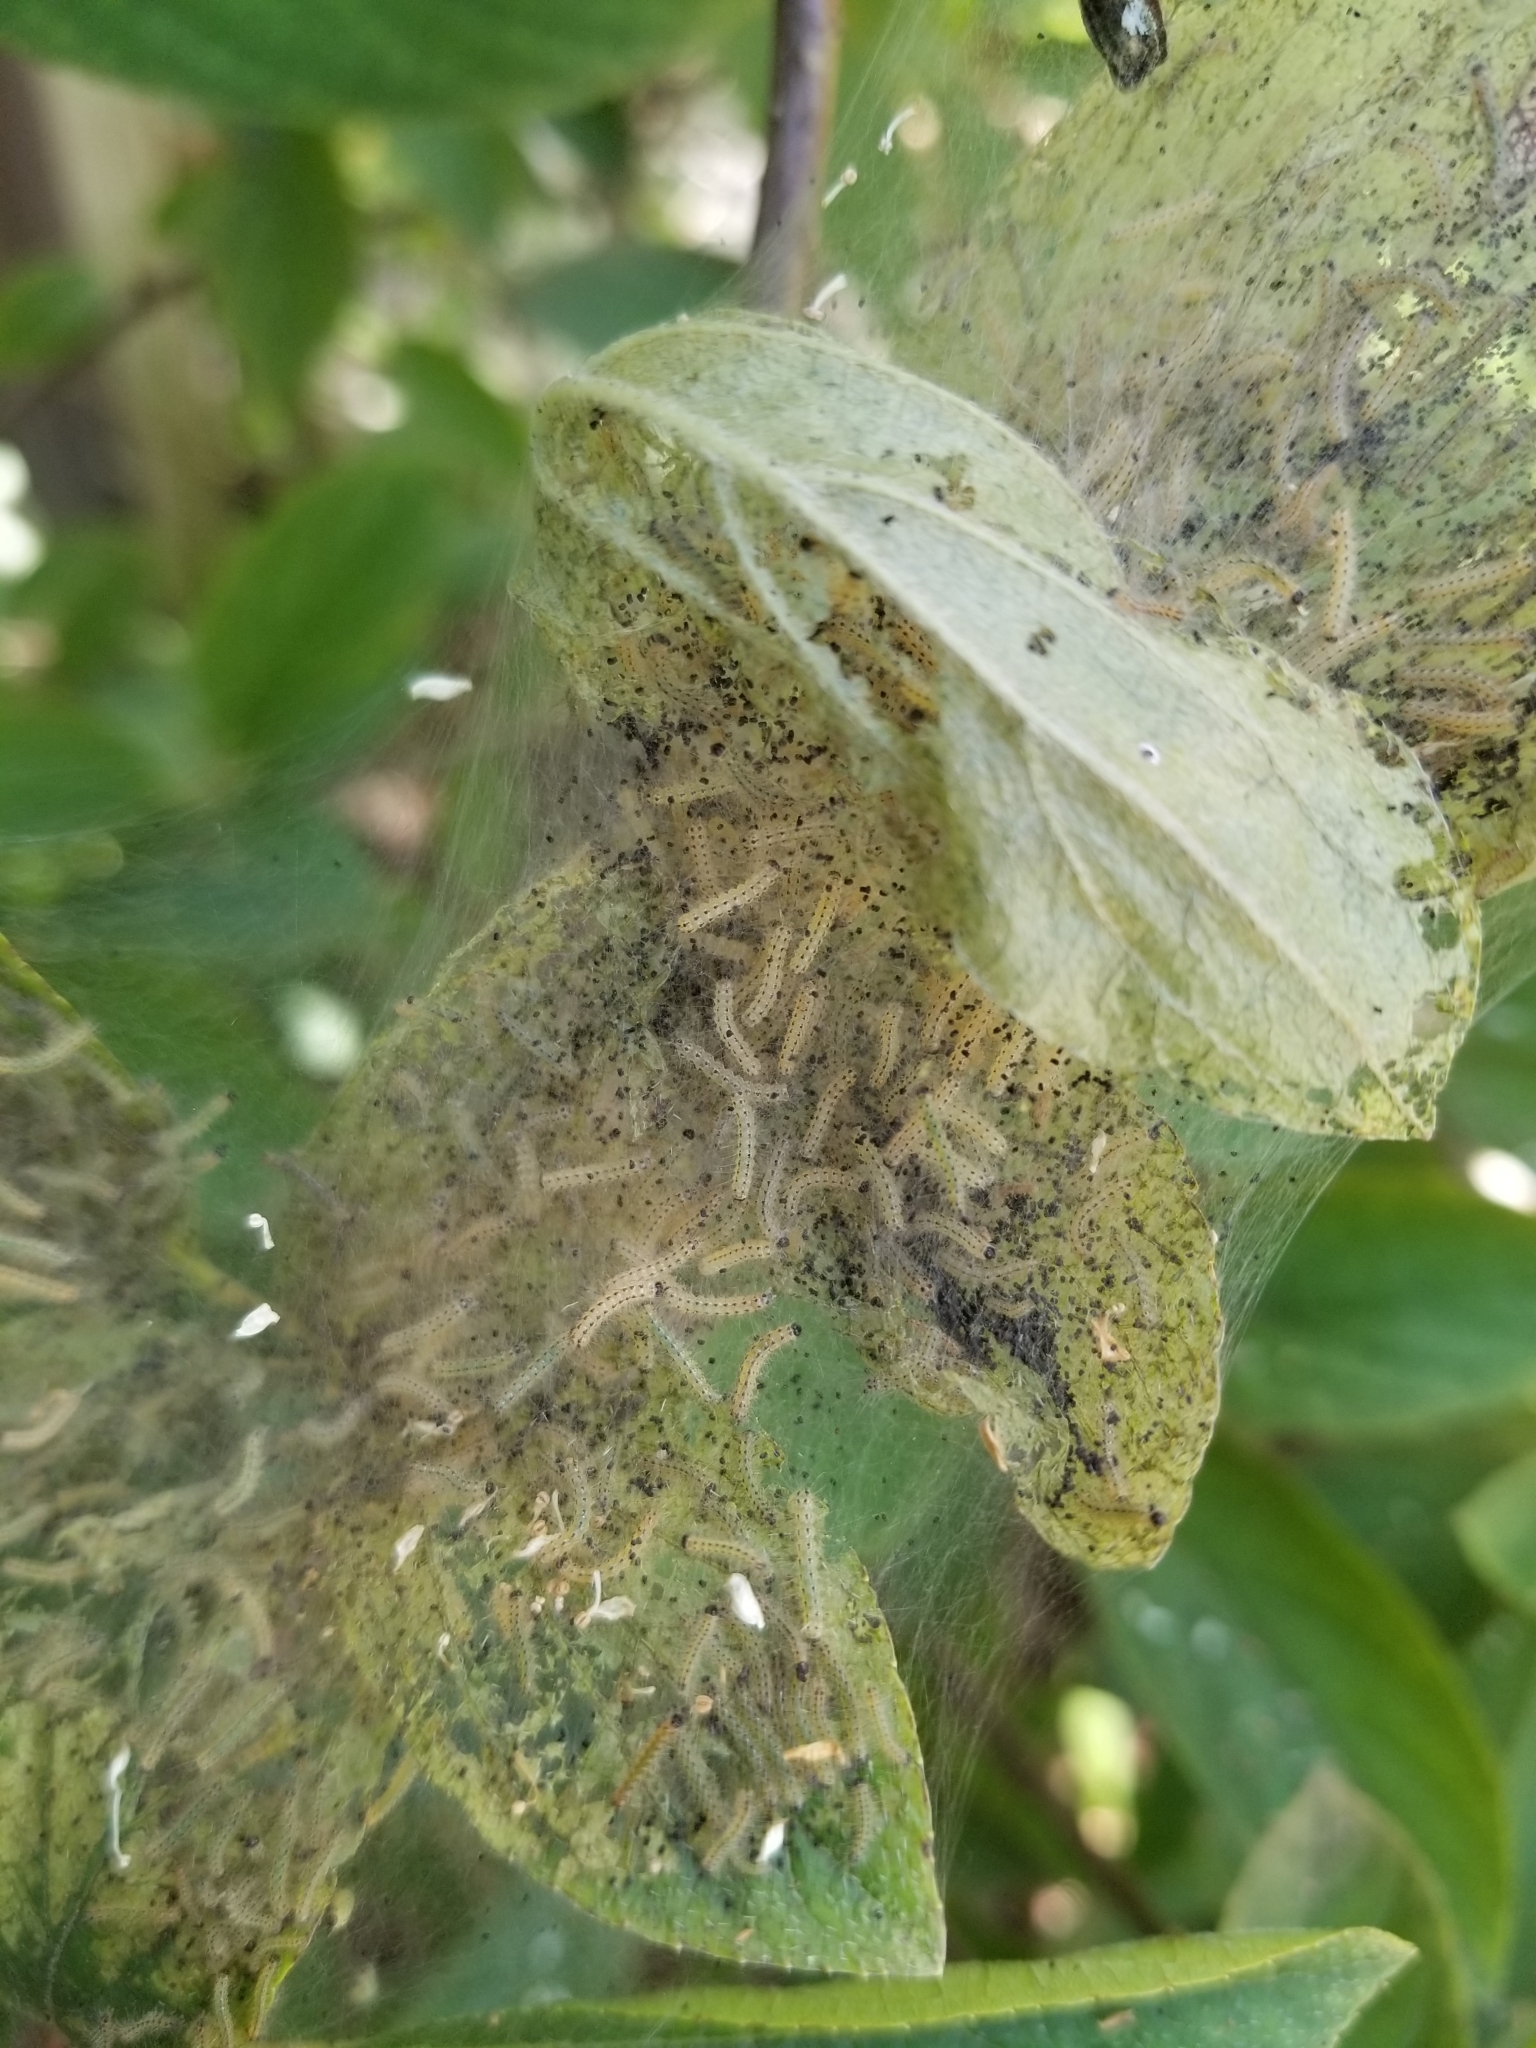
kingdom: Animalia
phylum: Arthropoda
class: Insecta
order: Lepidoptera
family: Erebidae
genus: Hyphantria
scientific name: Hyphantria cunea
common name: American white moth
